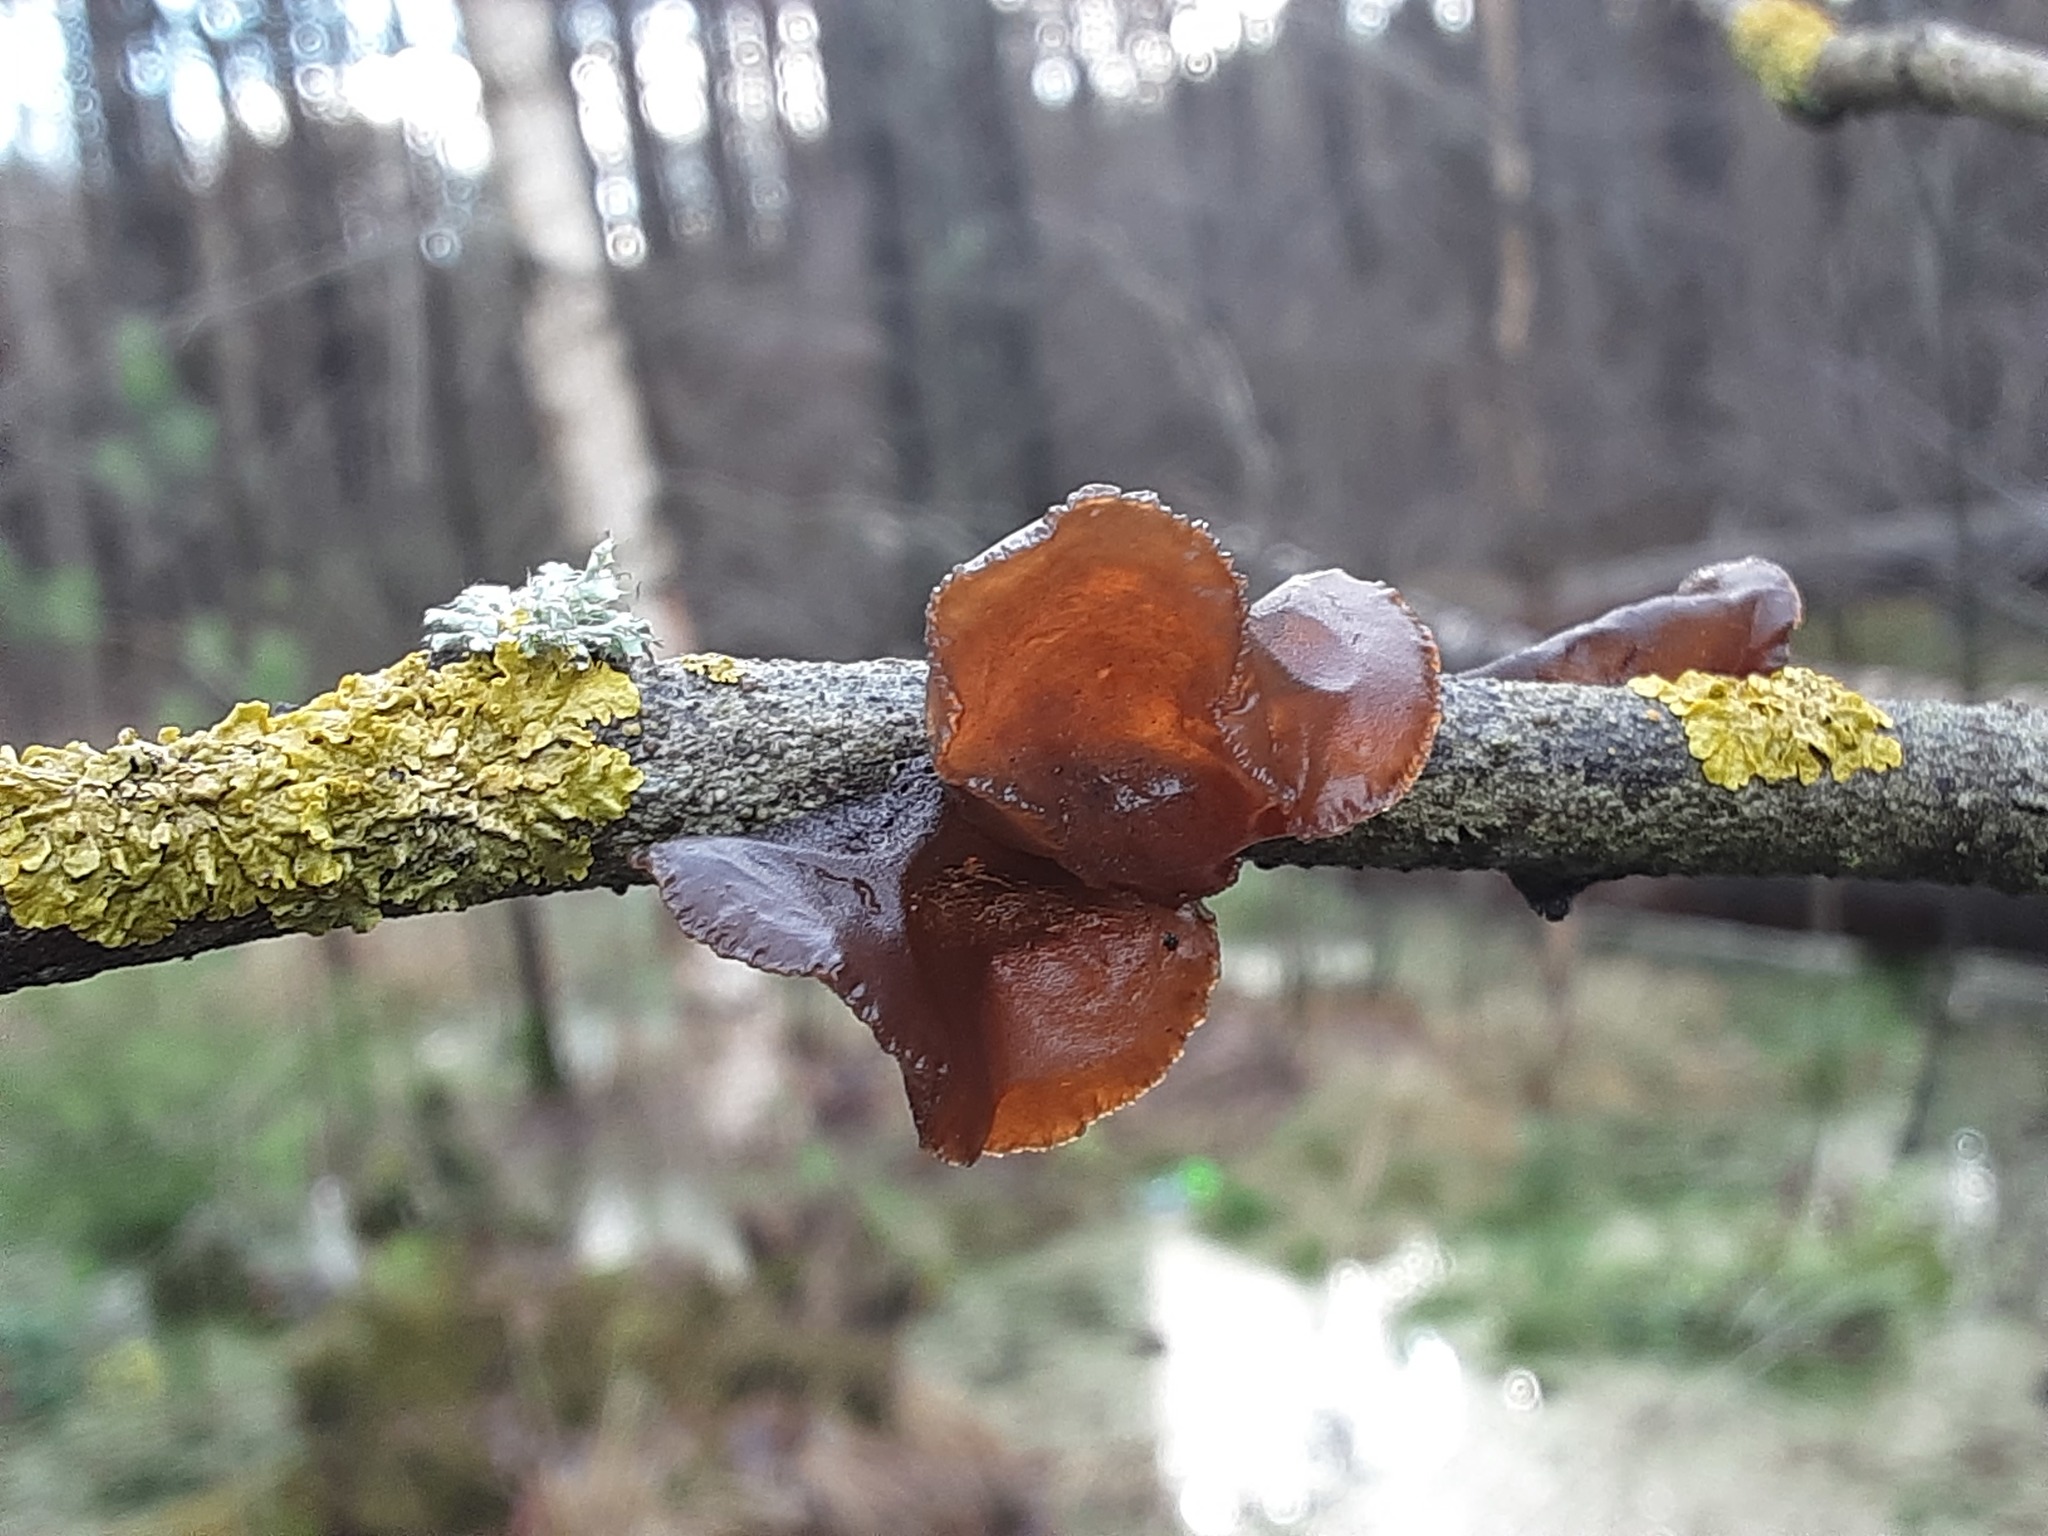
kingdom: Fungi
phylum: Basidiomycota
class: Agaricomycetes
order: Auriculariales
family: Auriculariaceae
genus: Exidia
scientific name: Exidia recisa
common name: Amber jelly
